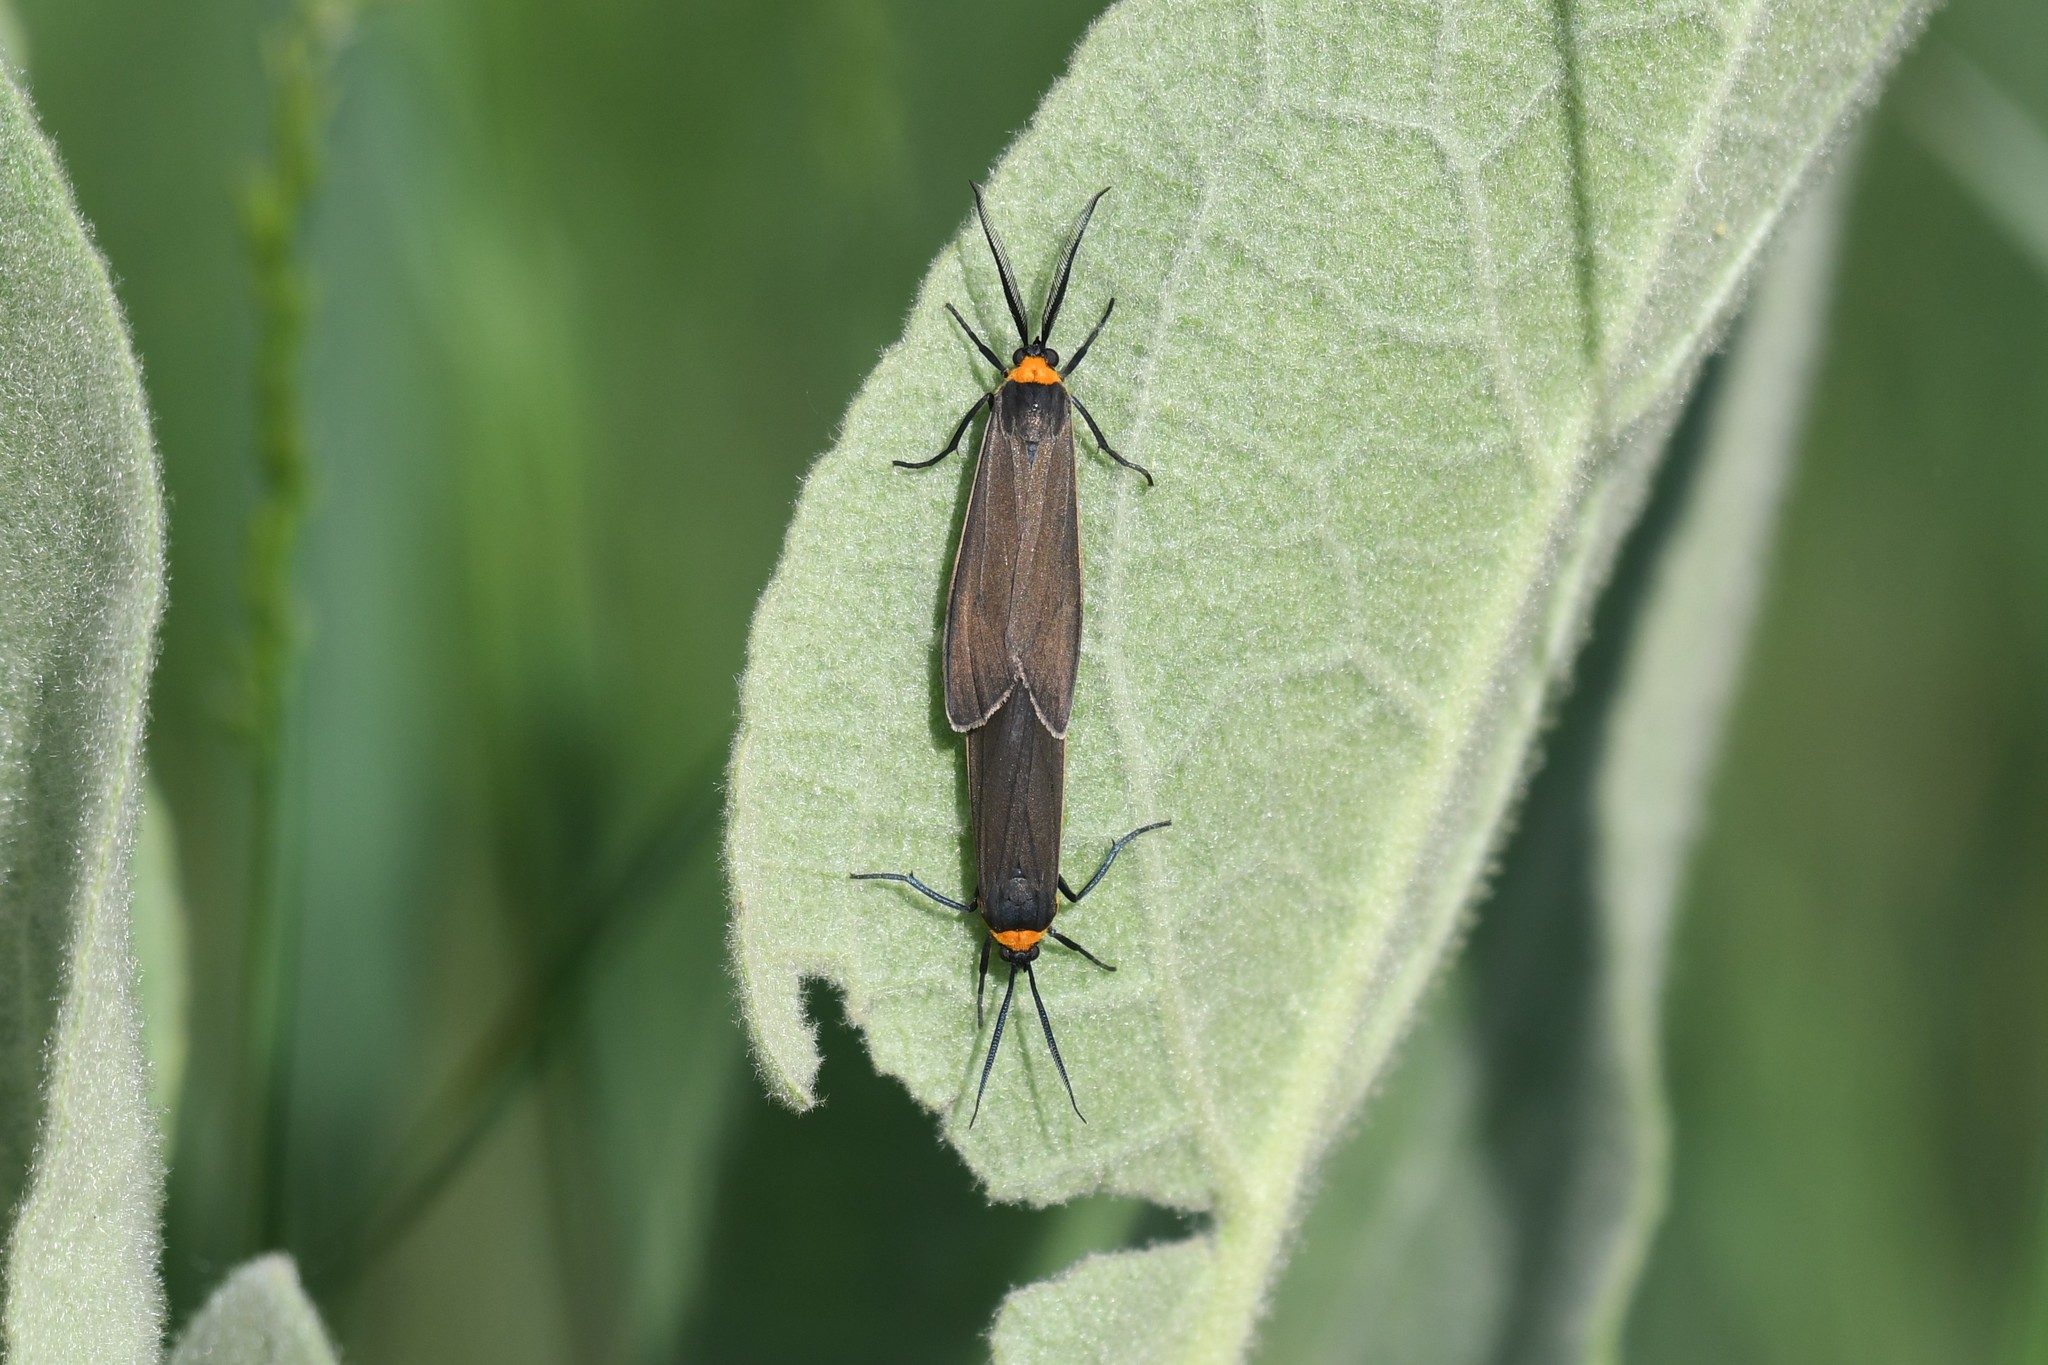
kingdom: Animalia
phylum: Arthropoda
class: Insecta
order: Lepidoptera
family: Erebidae
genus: Cisseps
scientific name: Cisseps fulvicollis
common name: Yellow-collared scape moth
